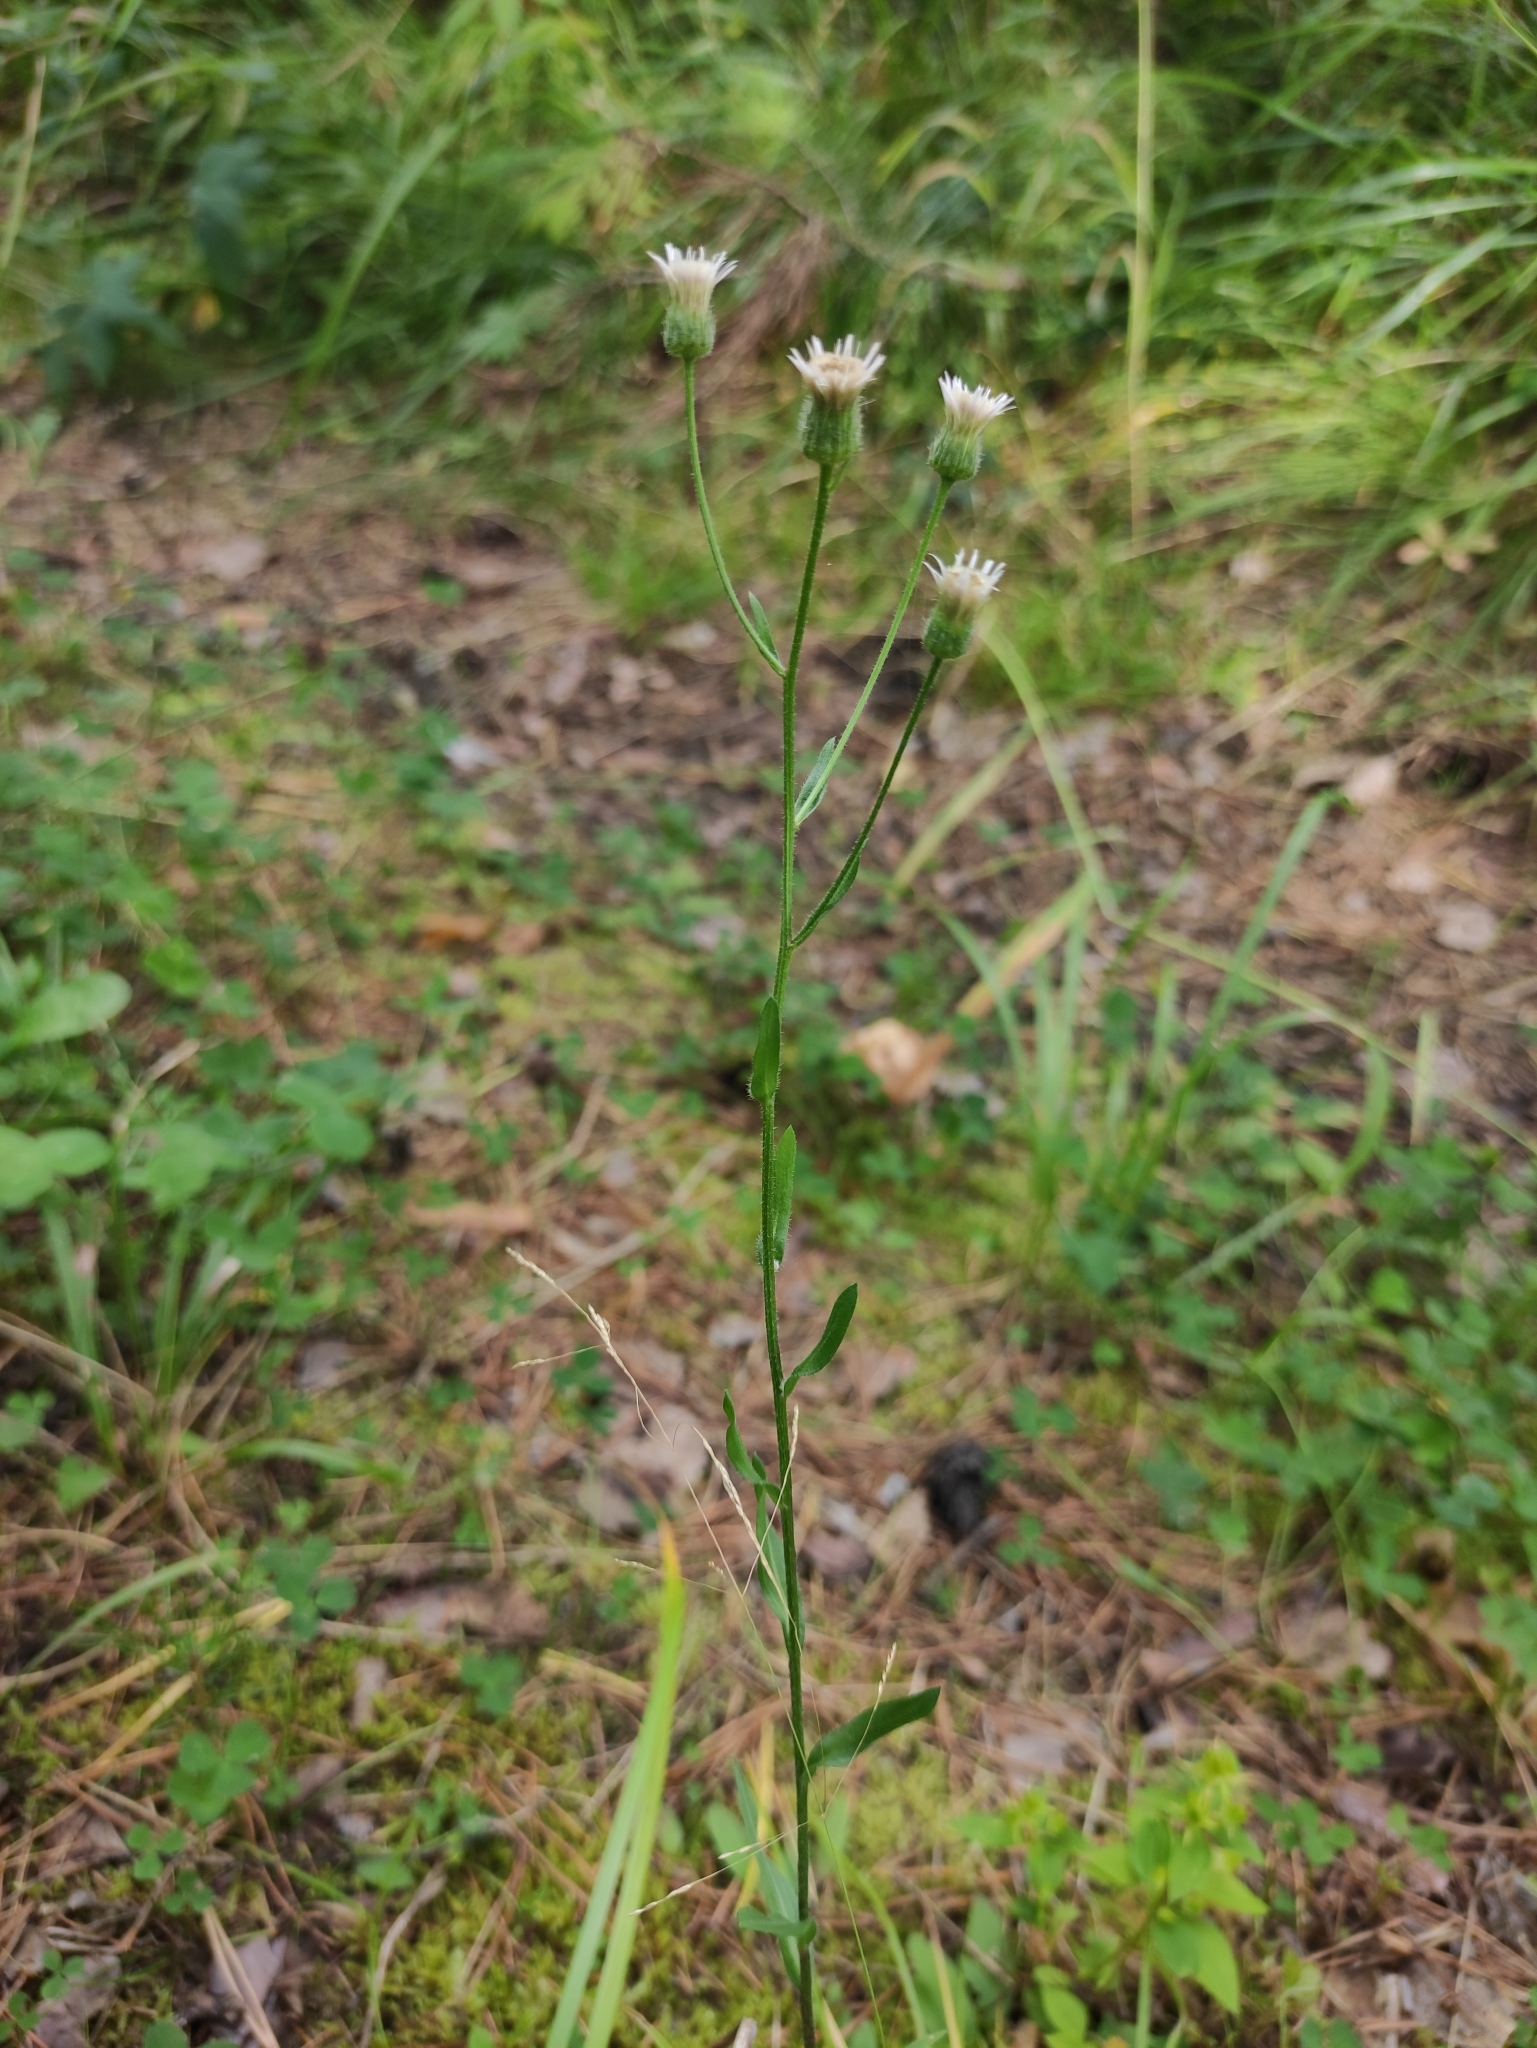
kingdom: Plantae
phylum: Tracheophyta
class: Magnoliopsida
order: Asterales
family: Asteraceae
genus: Erigeron
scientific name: Erigeron acris
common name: Blue fleabane
